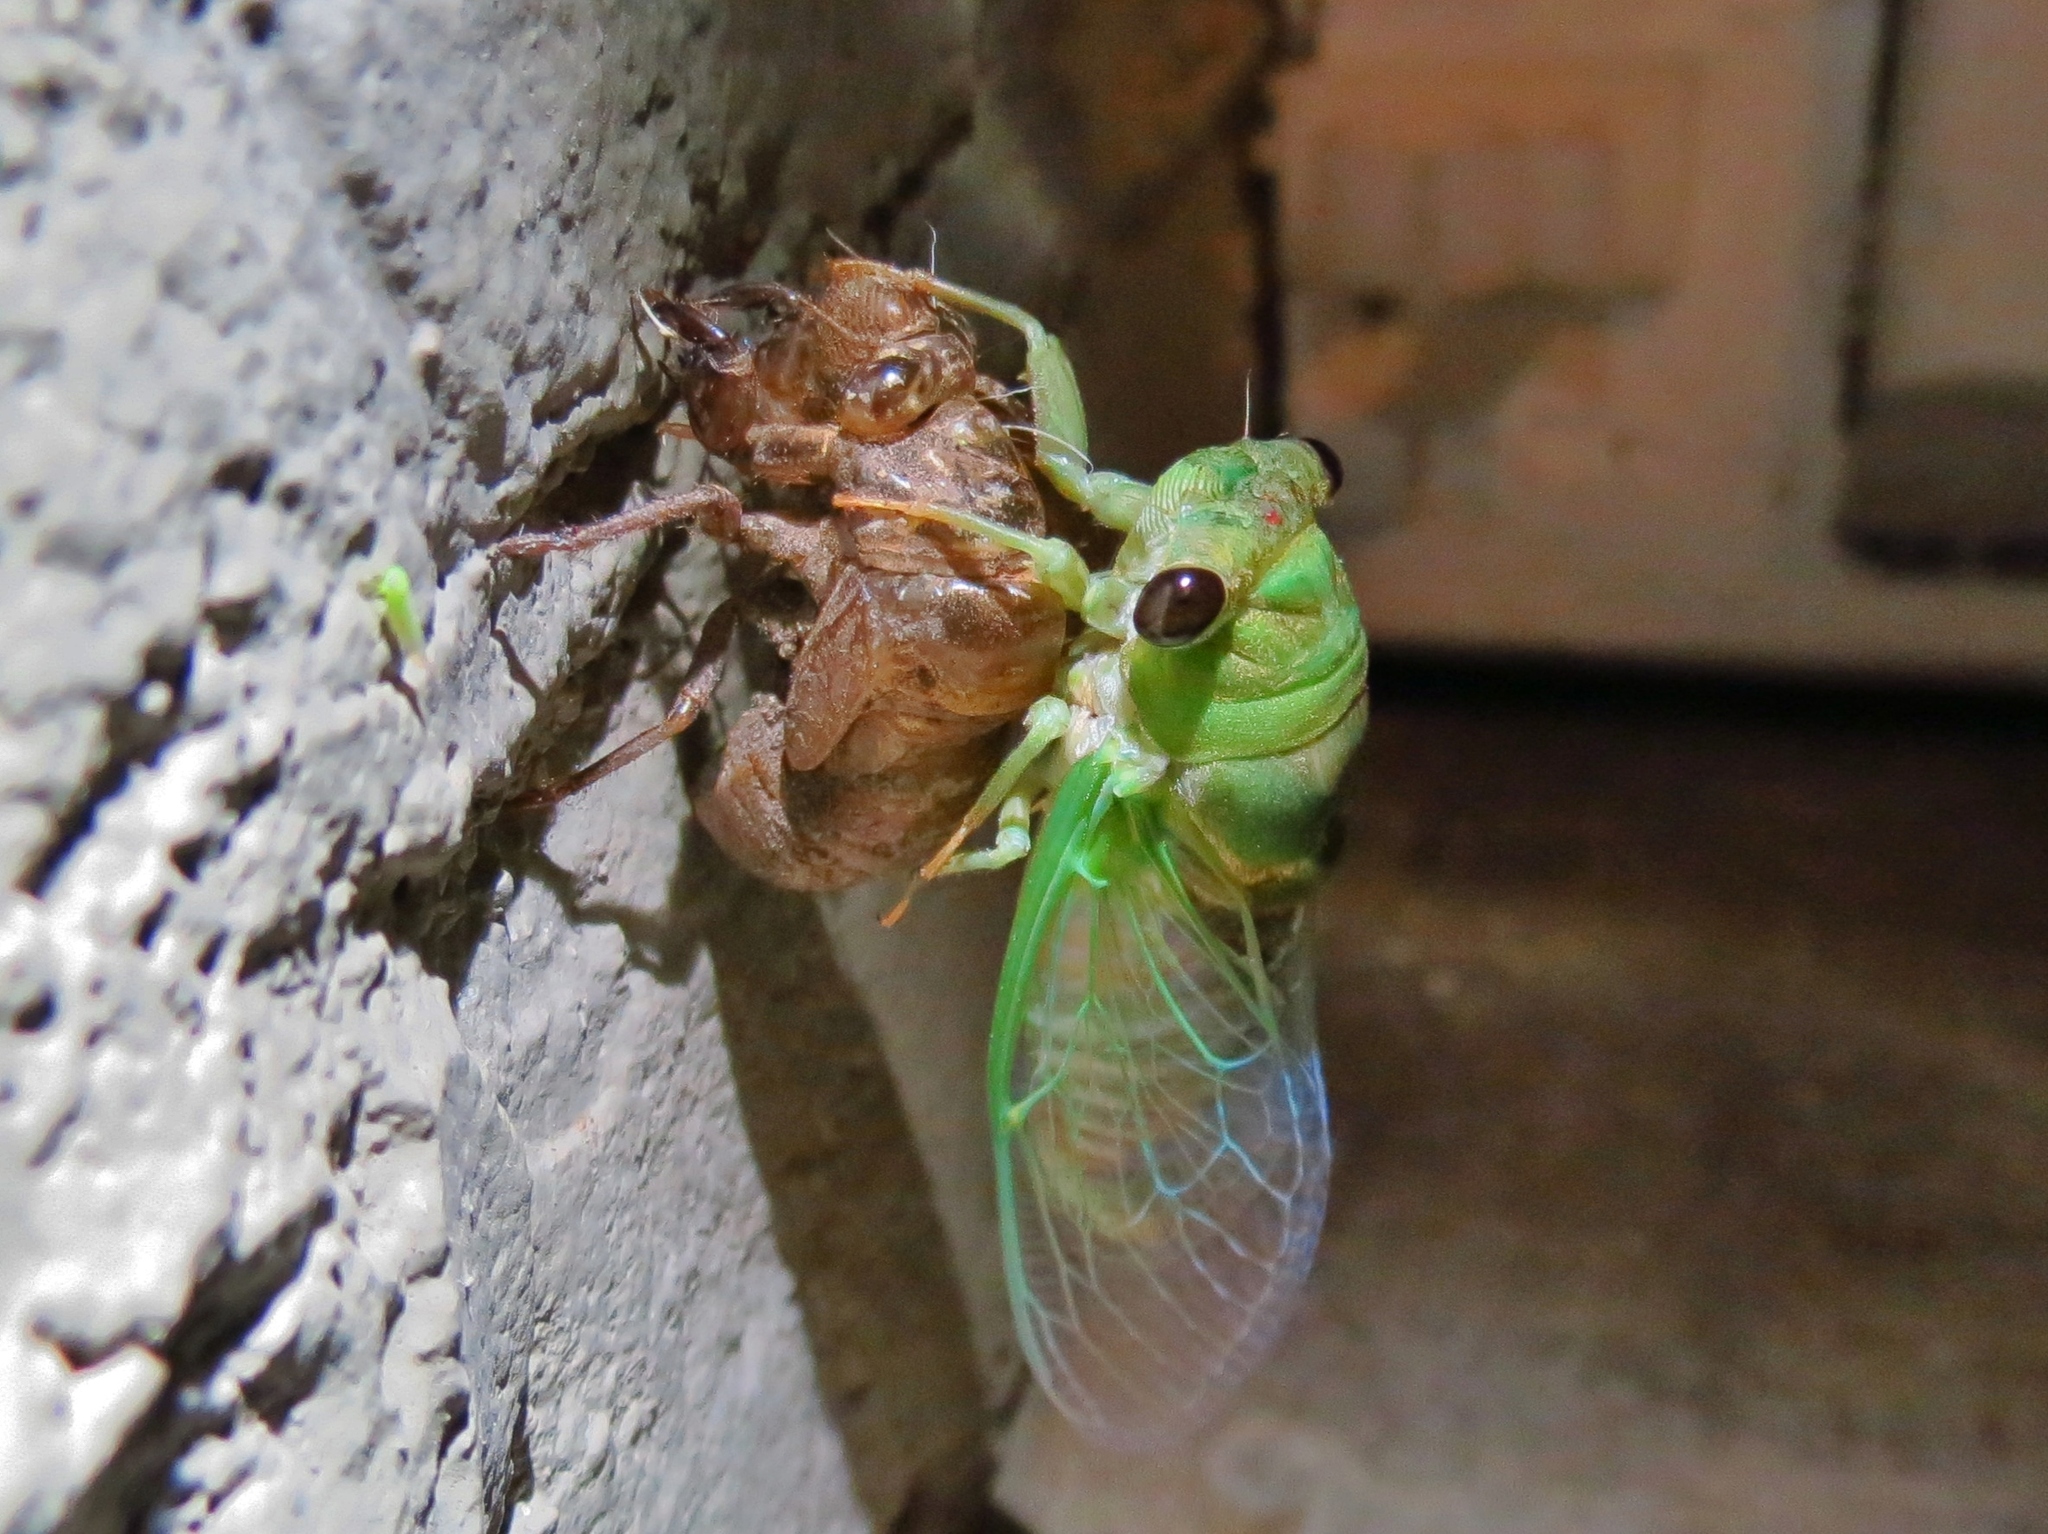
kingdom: Animalia
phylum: Arthropoda
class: Insecta
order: Hemiptera
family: Cicadidae
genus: Neotibicen
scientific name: Neotibicen superbus
